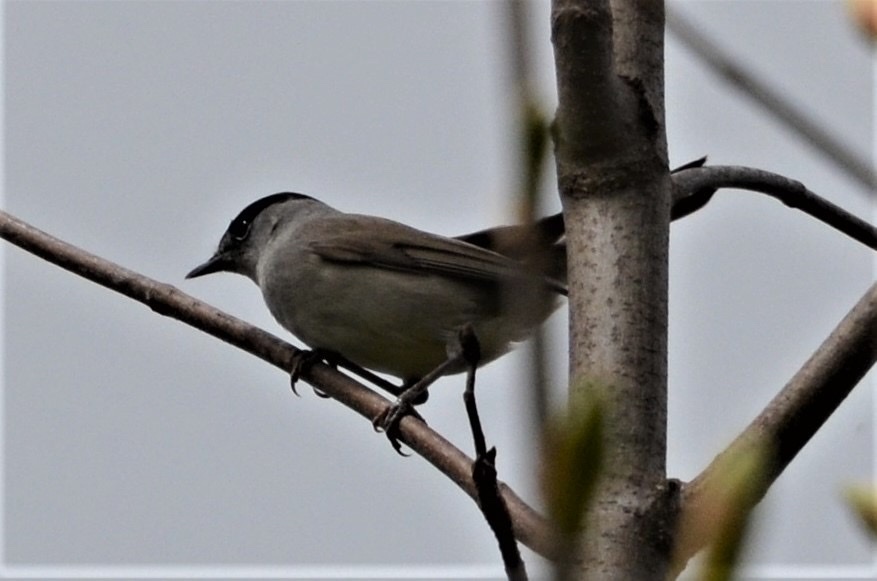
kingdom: Animalia
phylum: Chordata
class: Aves
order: Passeriformes
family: Sylviidae
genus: Sylvia
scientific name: Sylvia atricapilla
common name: Eurasian blackcap
